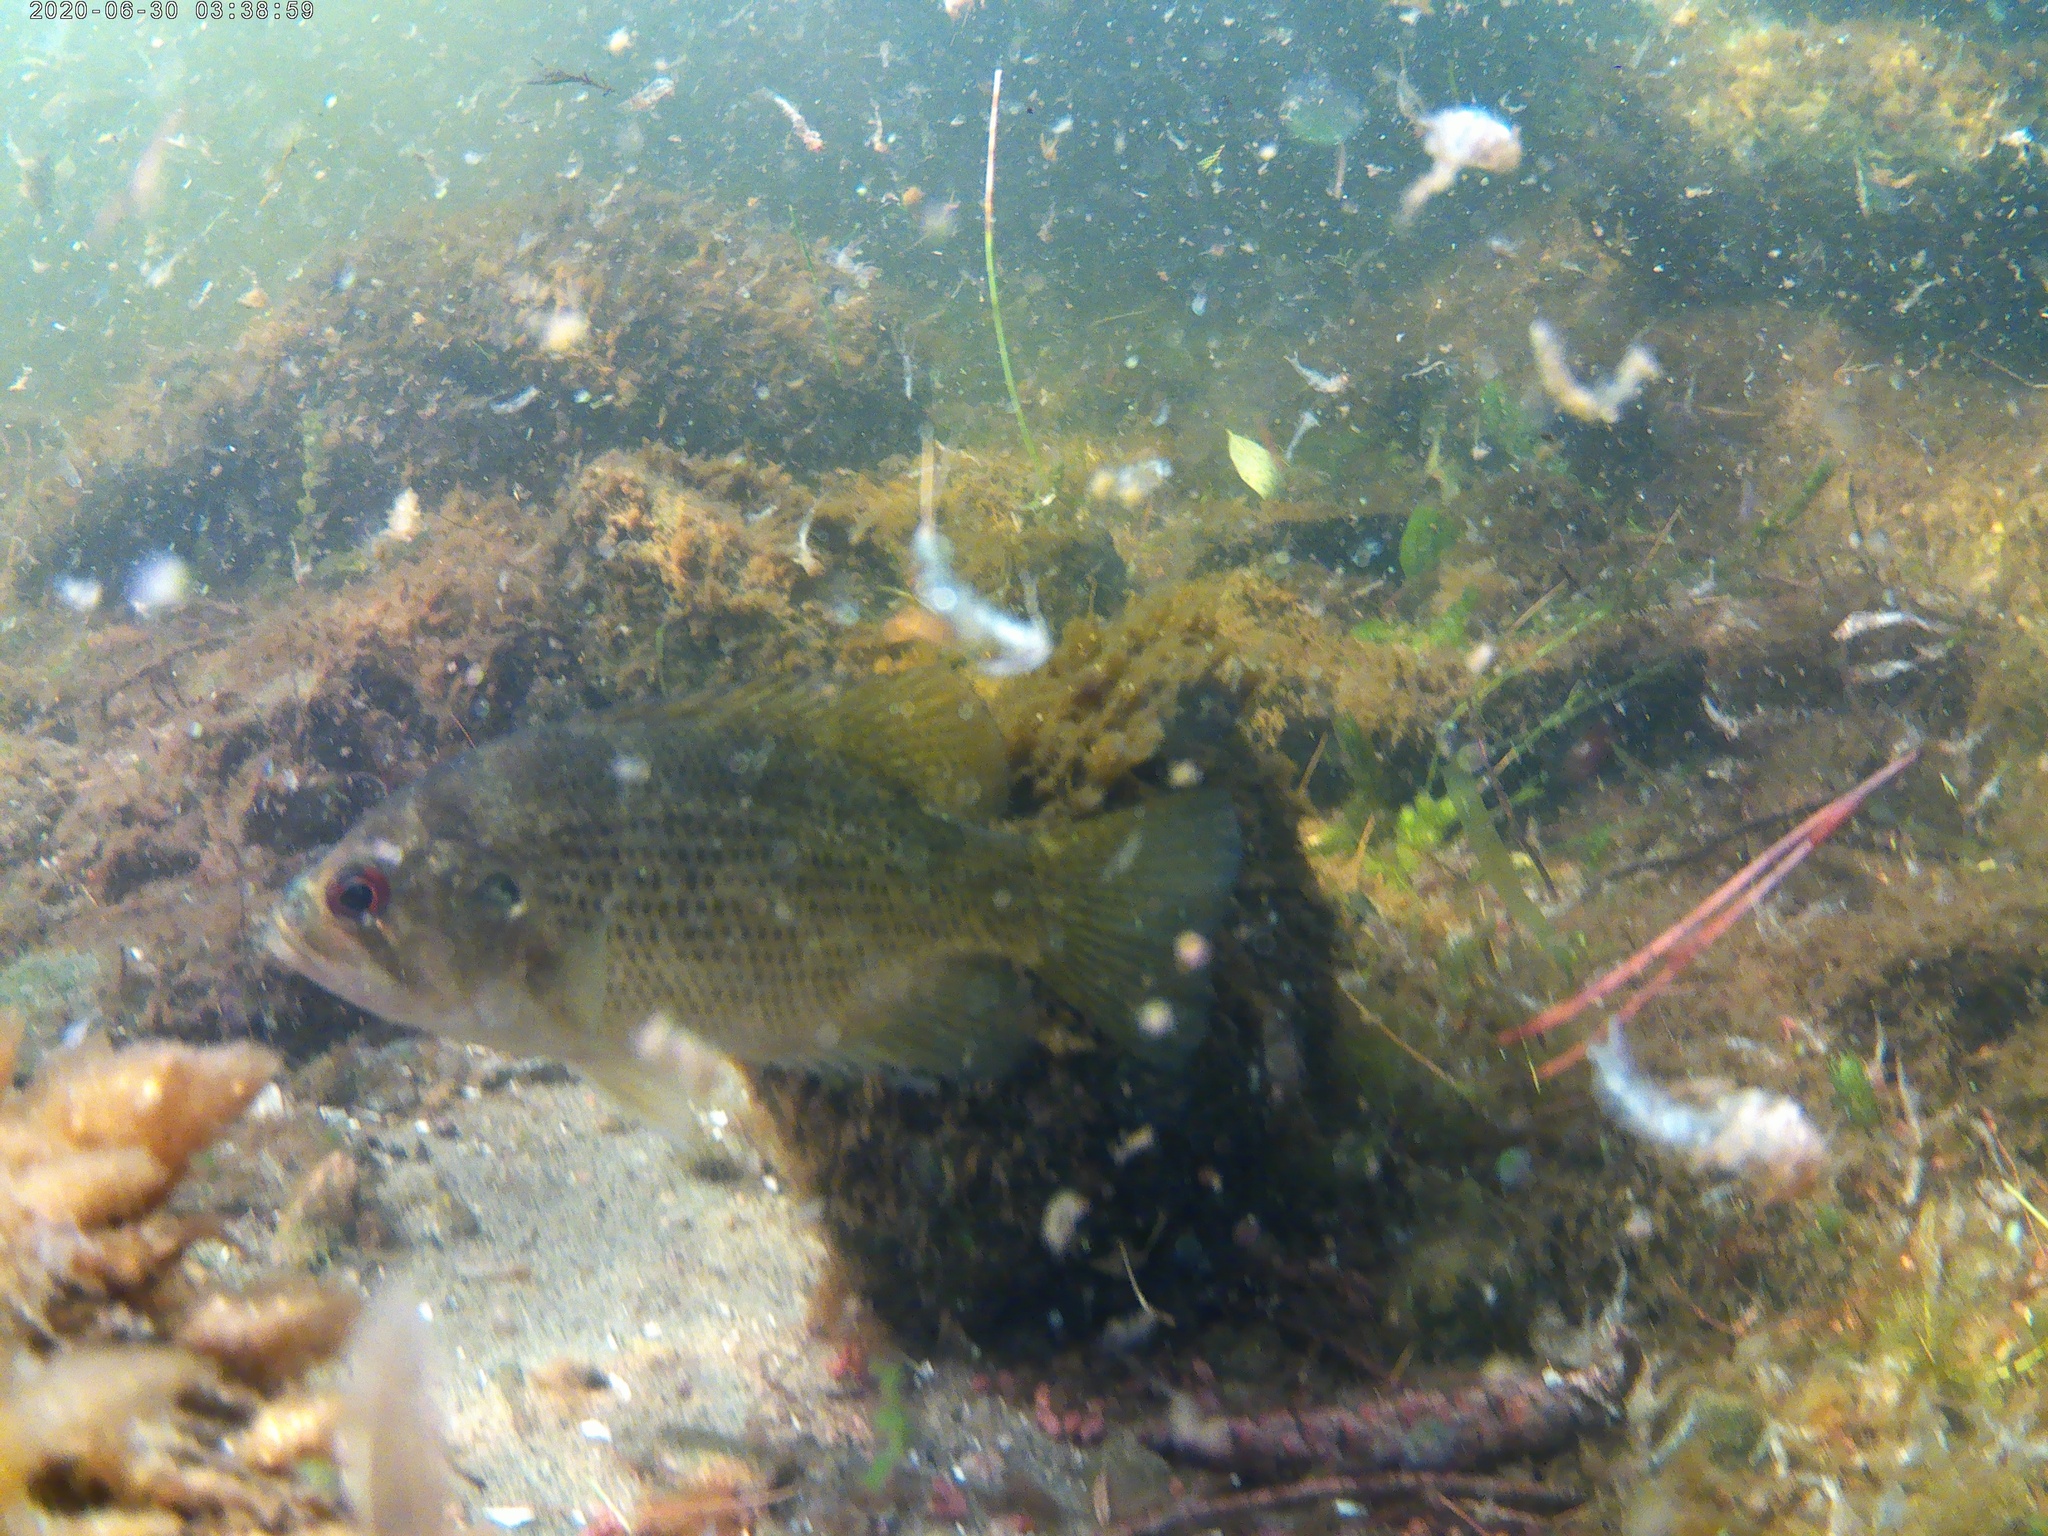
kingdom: Animalia
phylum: Chordata
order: Perciformes
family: Centrarchidae
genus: Ambloplites
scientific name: Ambloplites rupestris
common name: Rock bass
